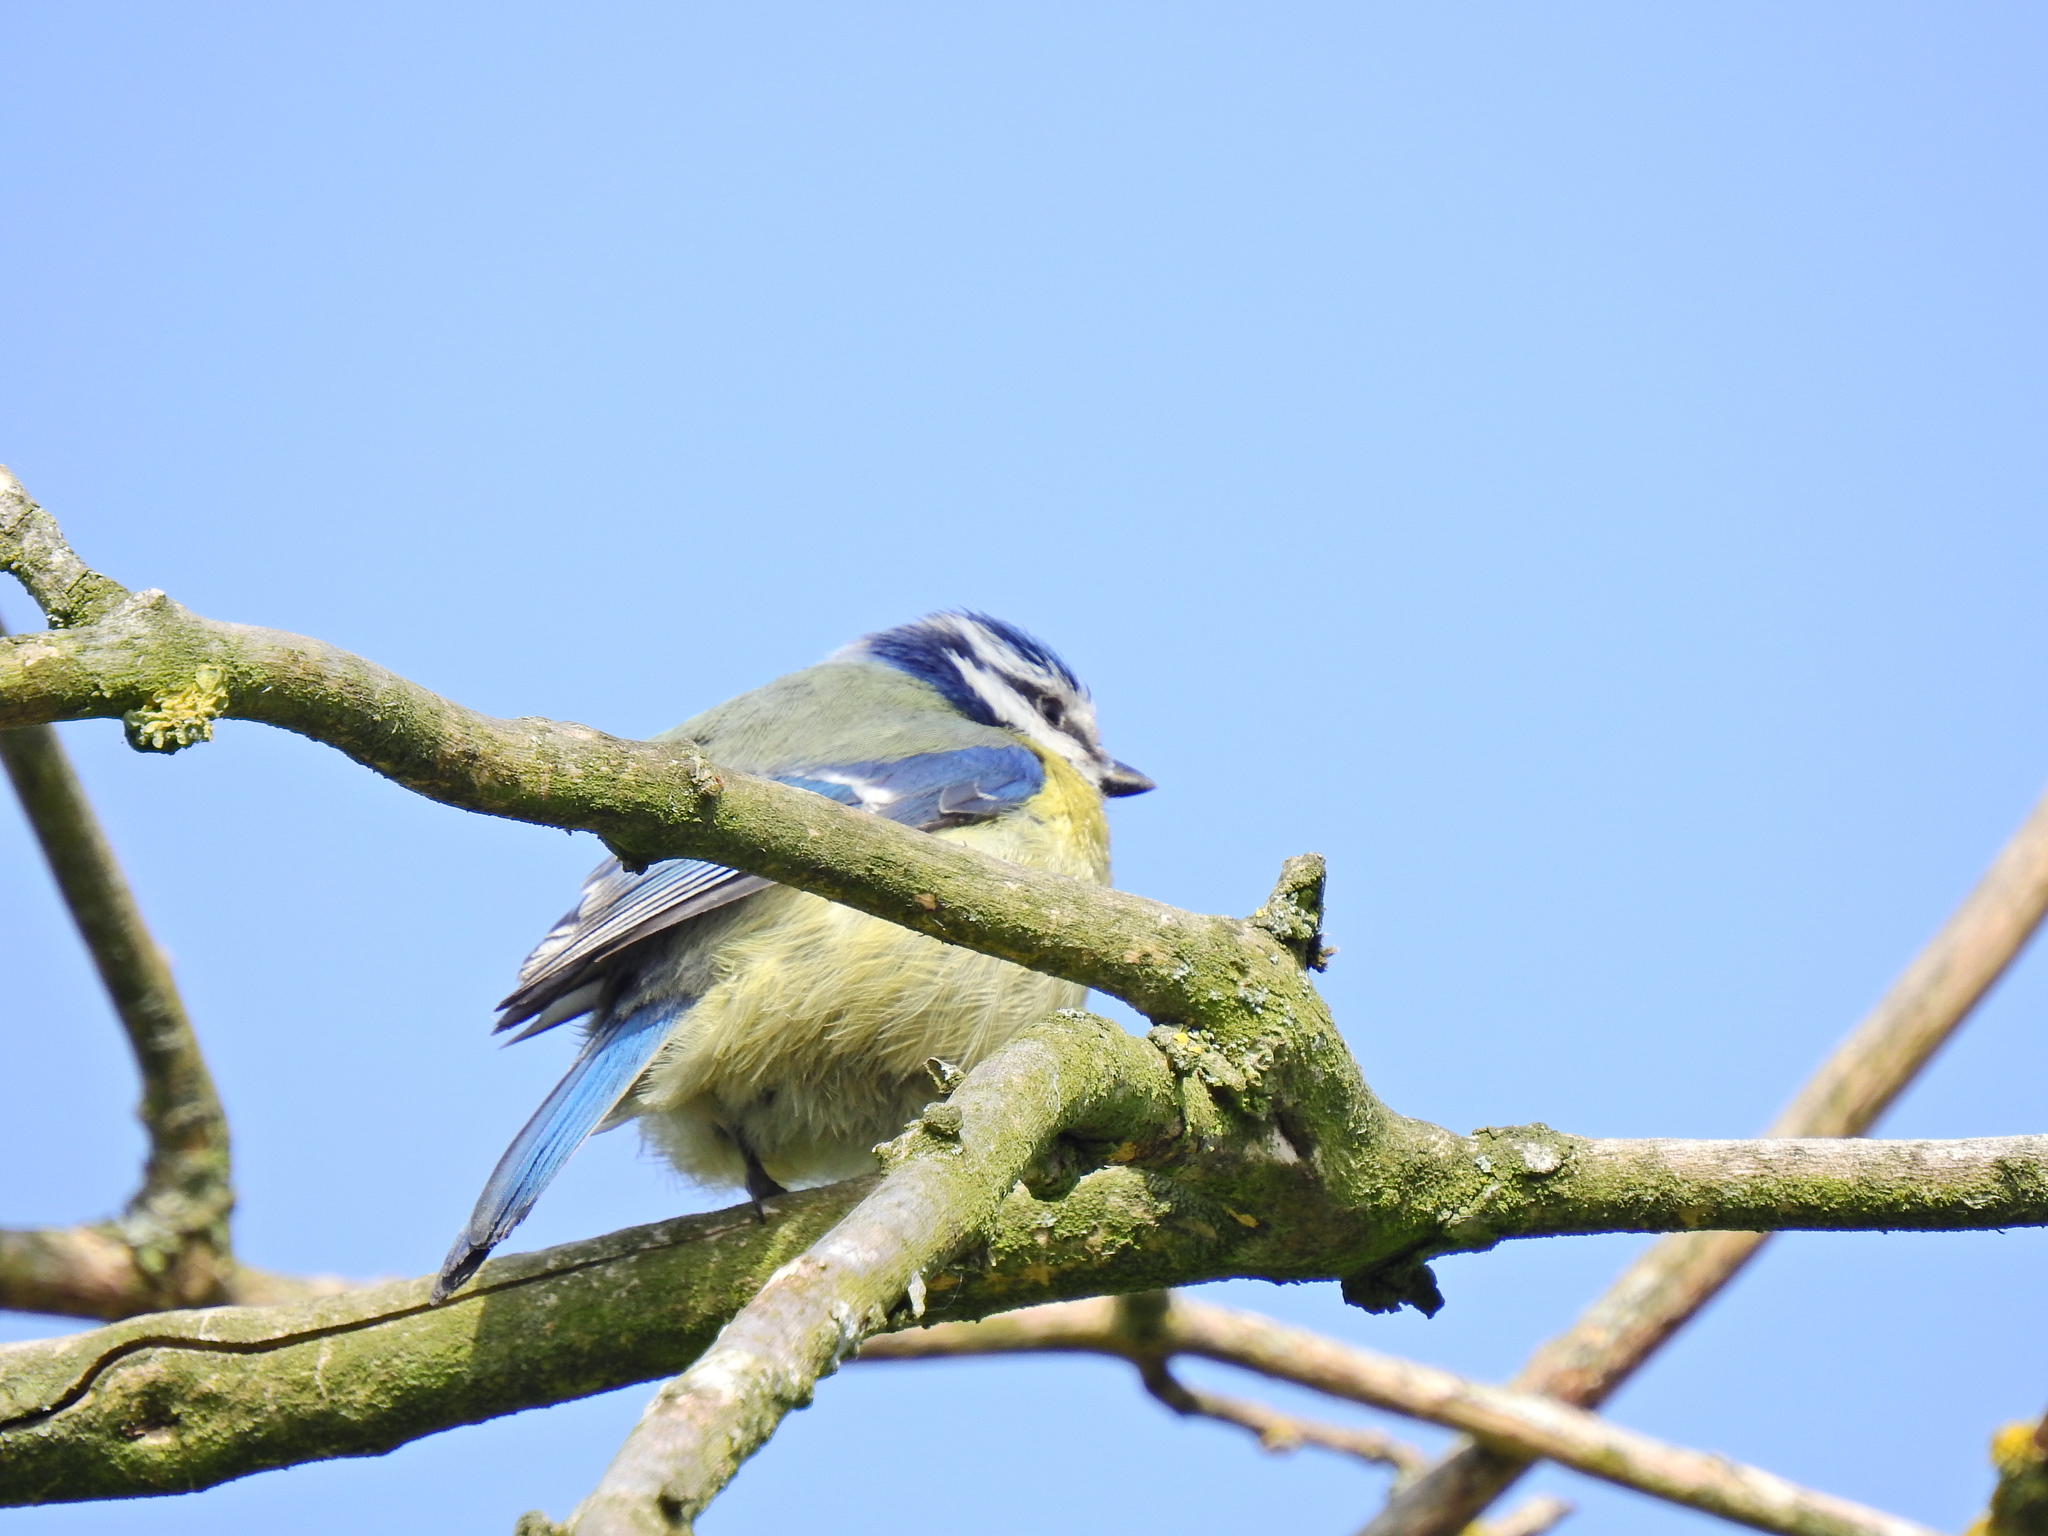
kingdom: Animalia
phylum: Chordata
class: Aves
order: Passeriformes
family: Paridae
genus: Cyanistes
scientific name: Cyanistes caeruleus
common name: Eurasian blue tit
